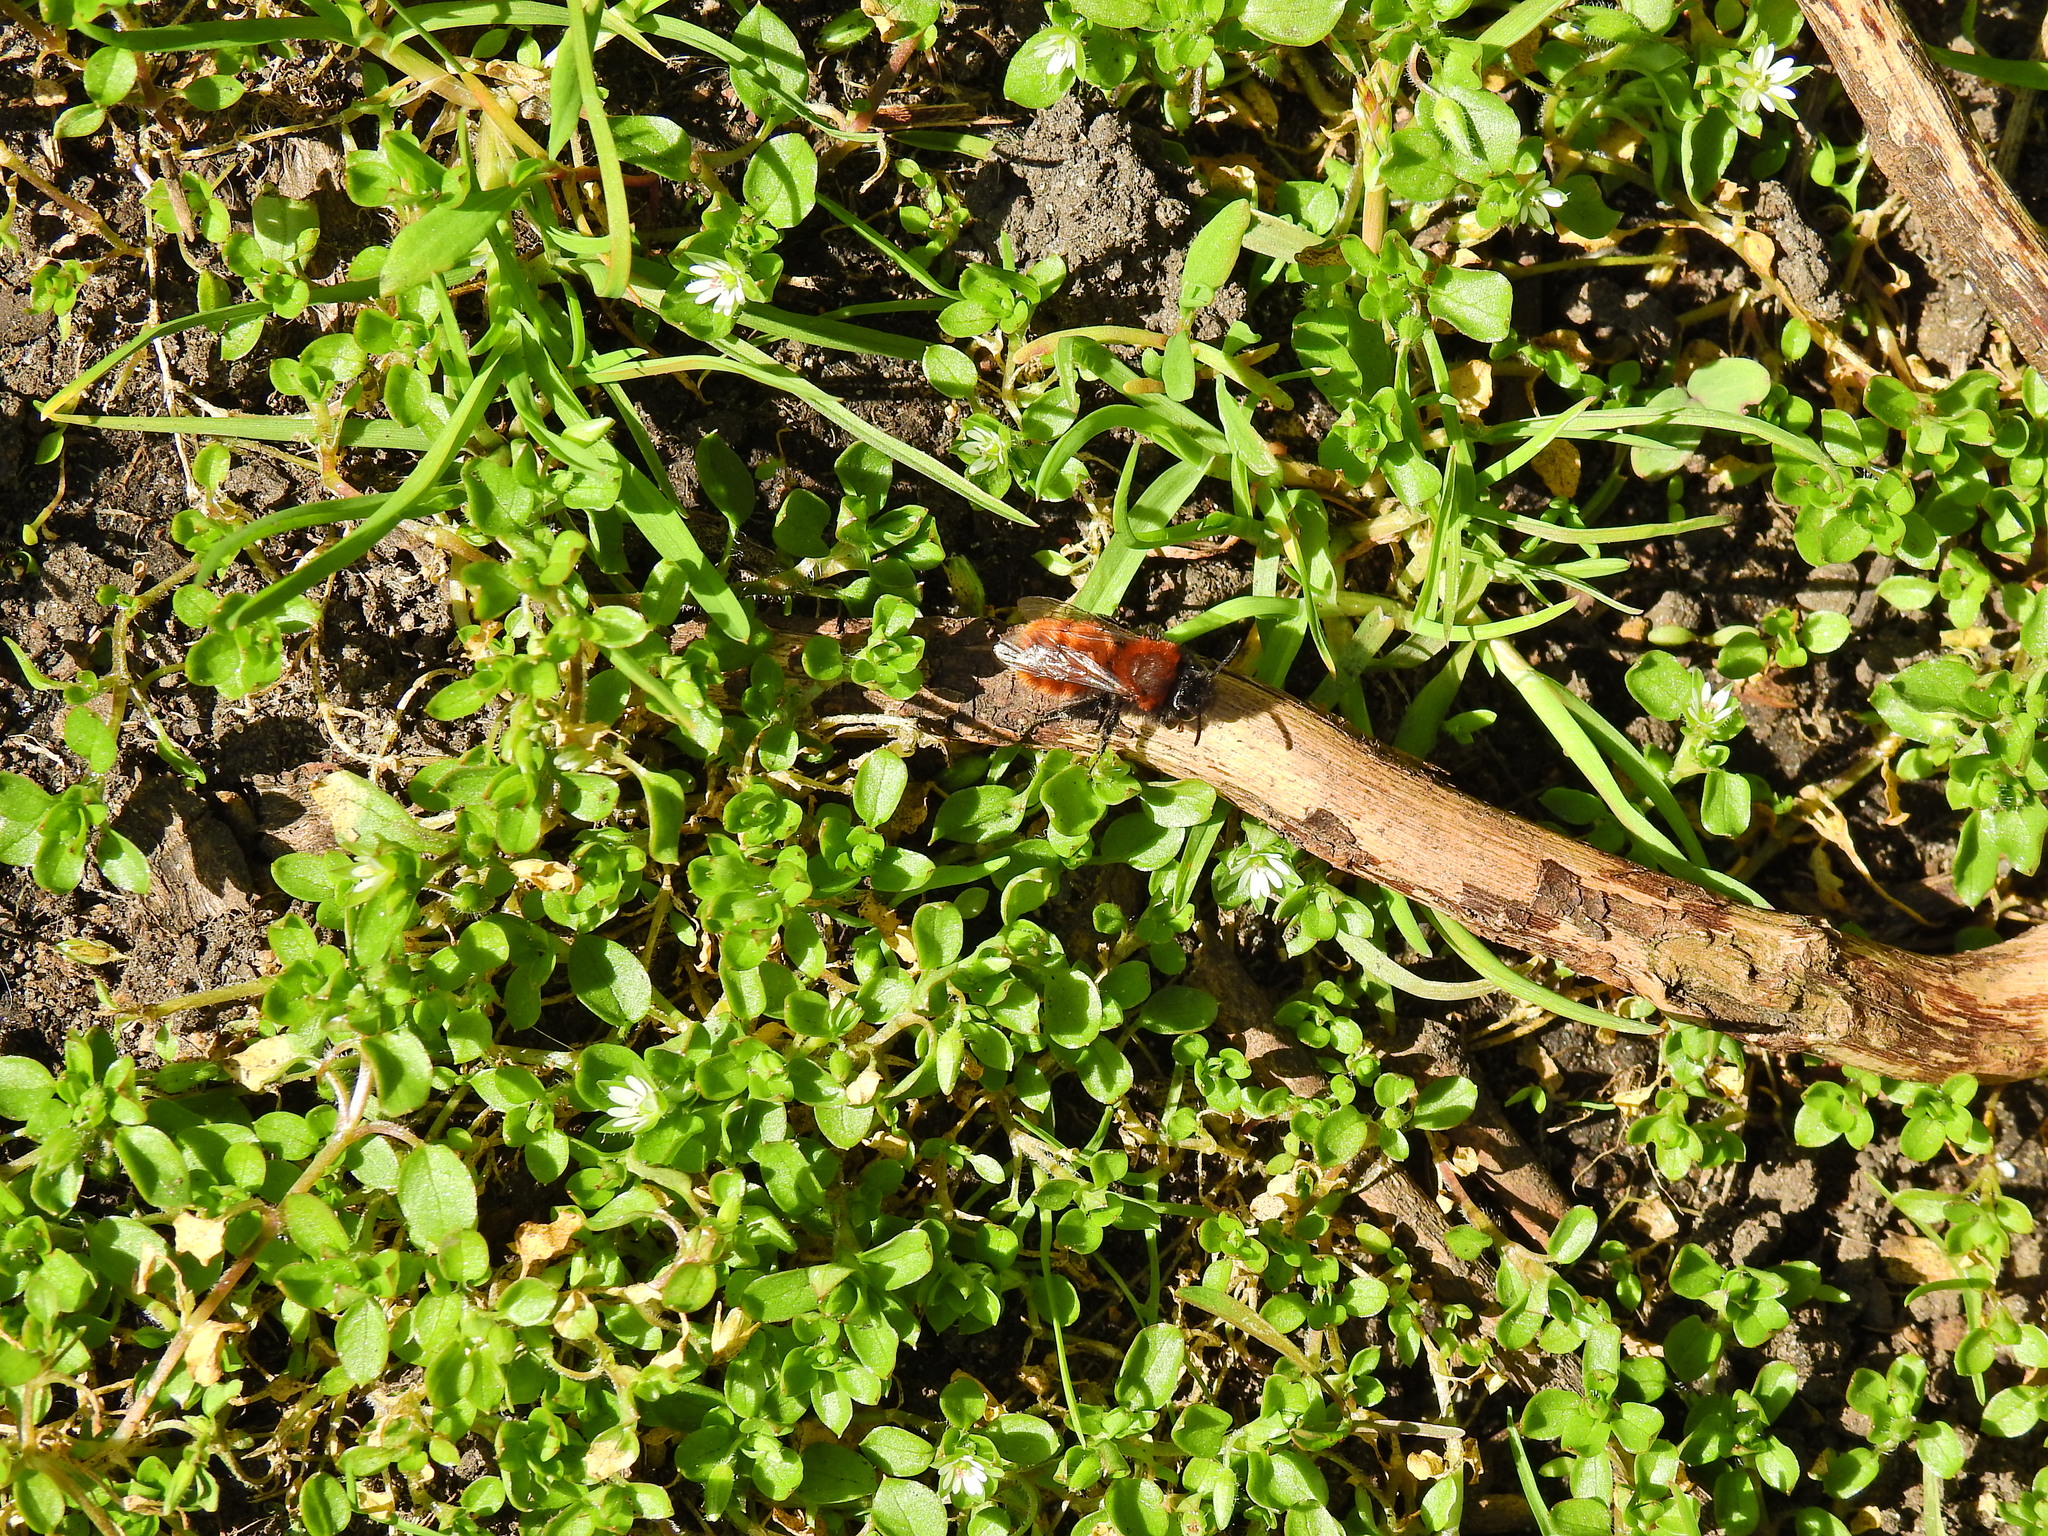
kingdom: Animalia
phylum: Arthropoda
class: Insecta
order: Hymenoptera
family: Andrenidae
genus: Andrena
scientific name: Andrena fulva
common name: Tawny mining bee
